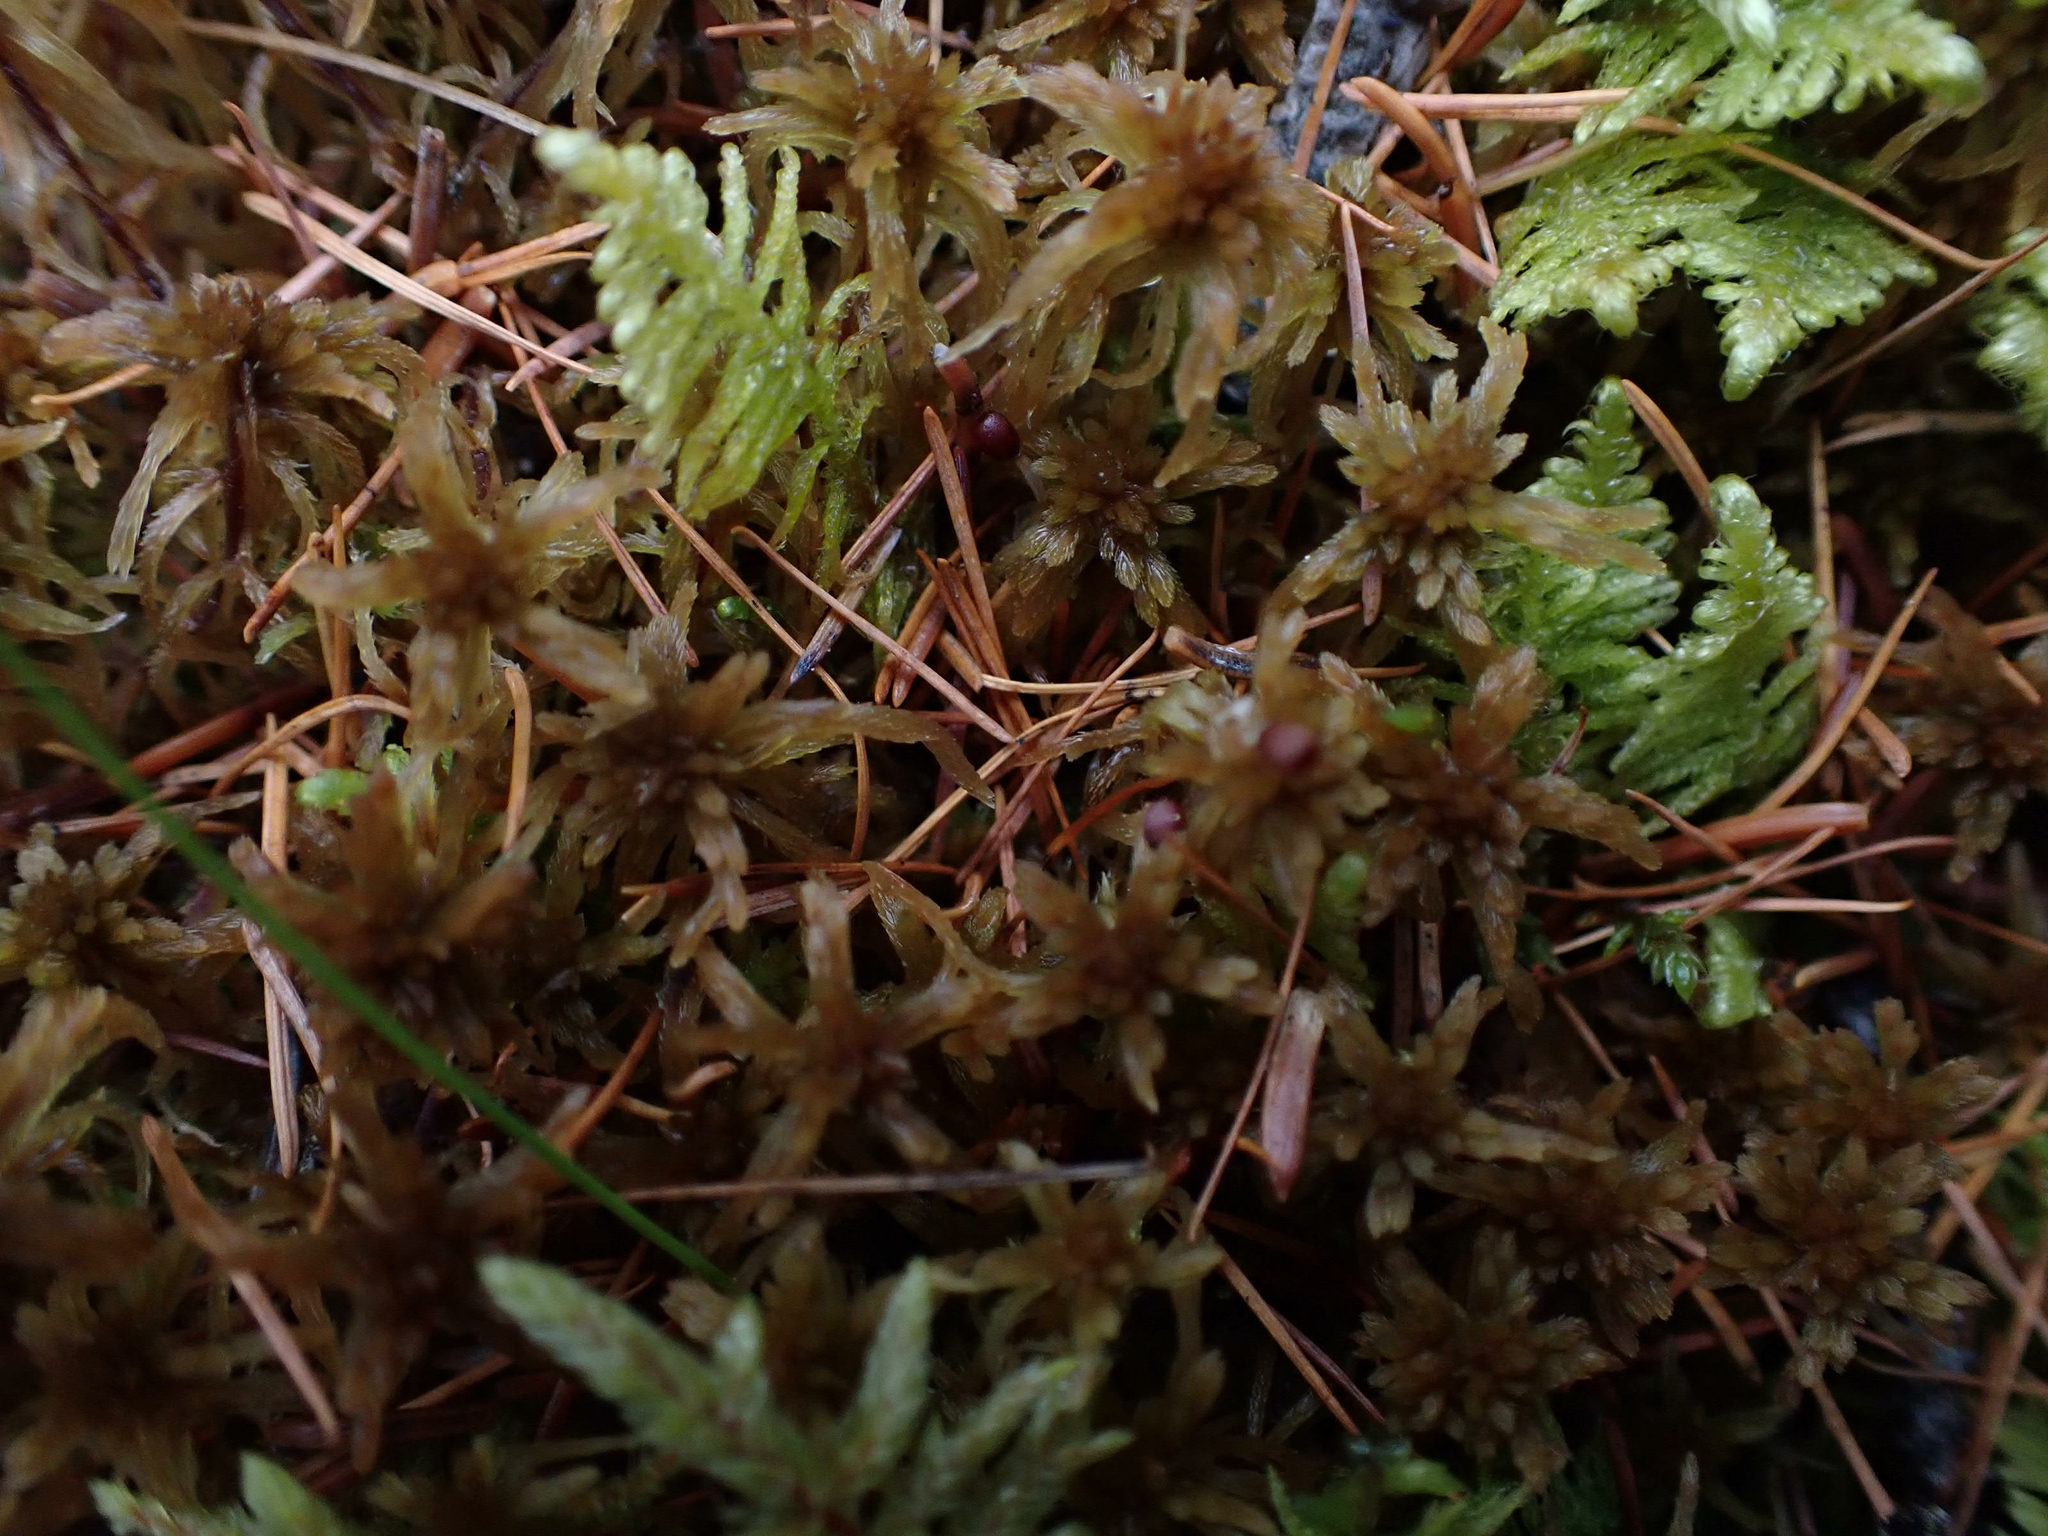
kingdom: Plantae
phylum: Bryophyta
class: Bryopsida
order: Hypnales
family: Pylaisiaceae
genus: Ptilium
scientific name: Ptilium crista-castrensis
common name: Knight's plume moss
